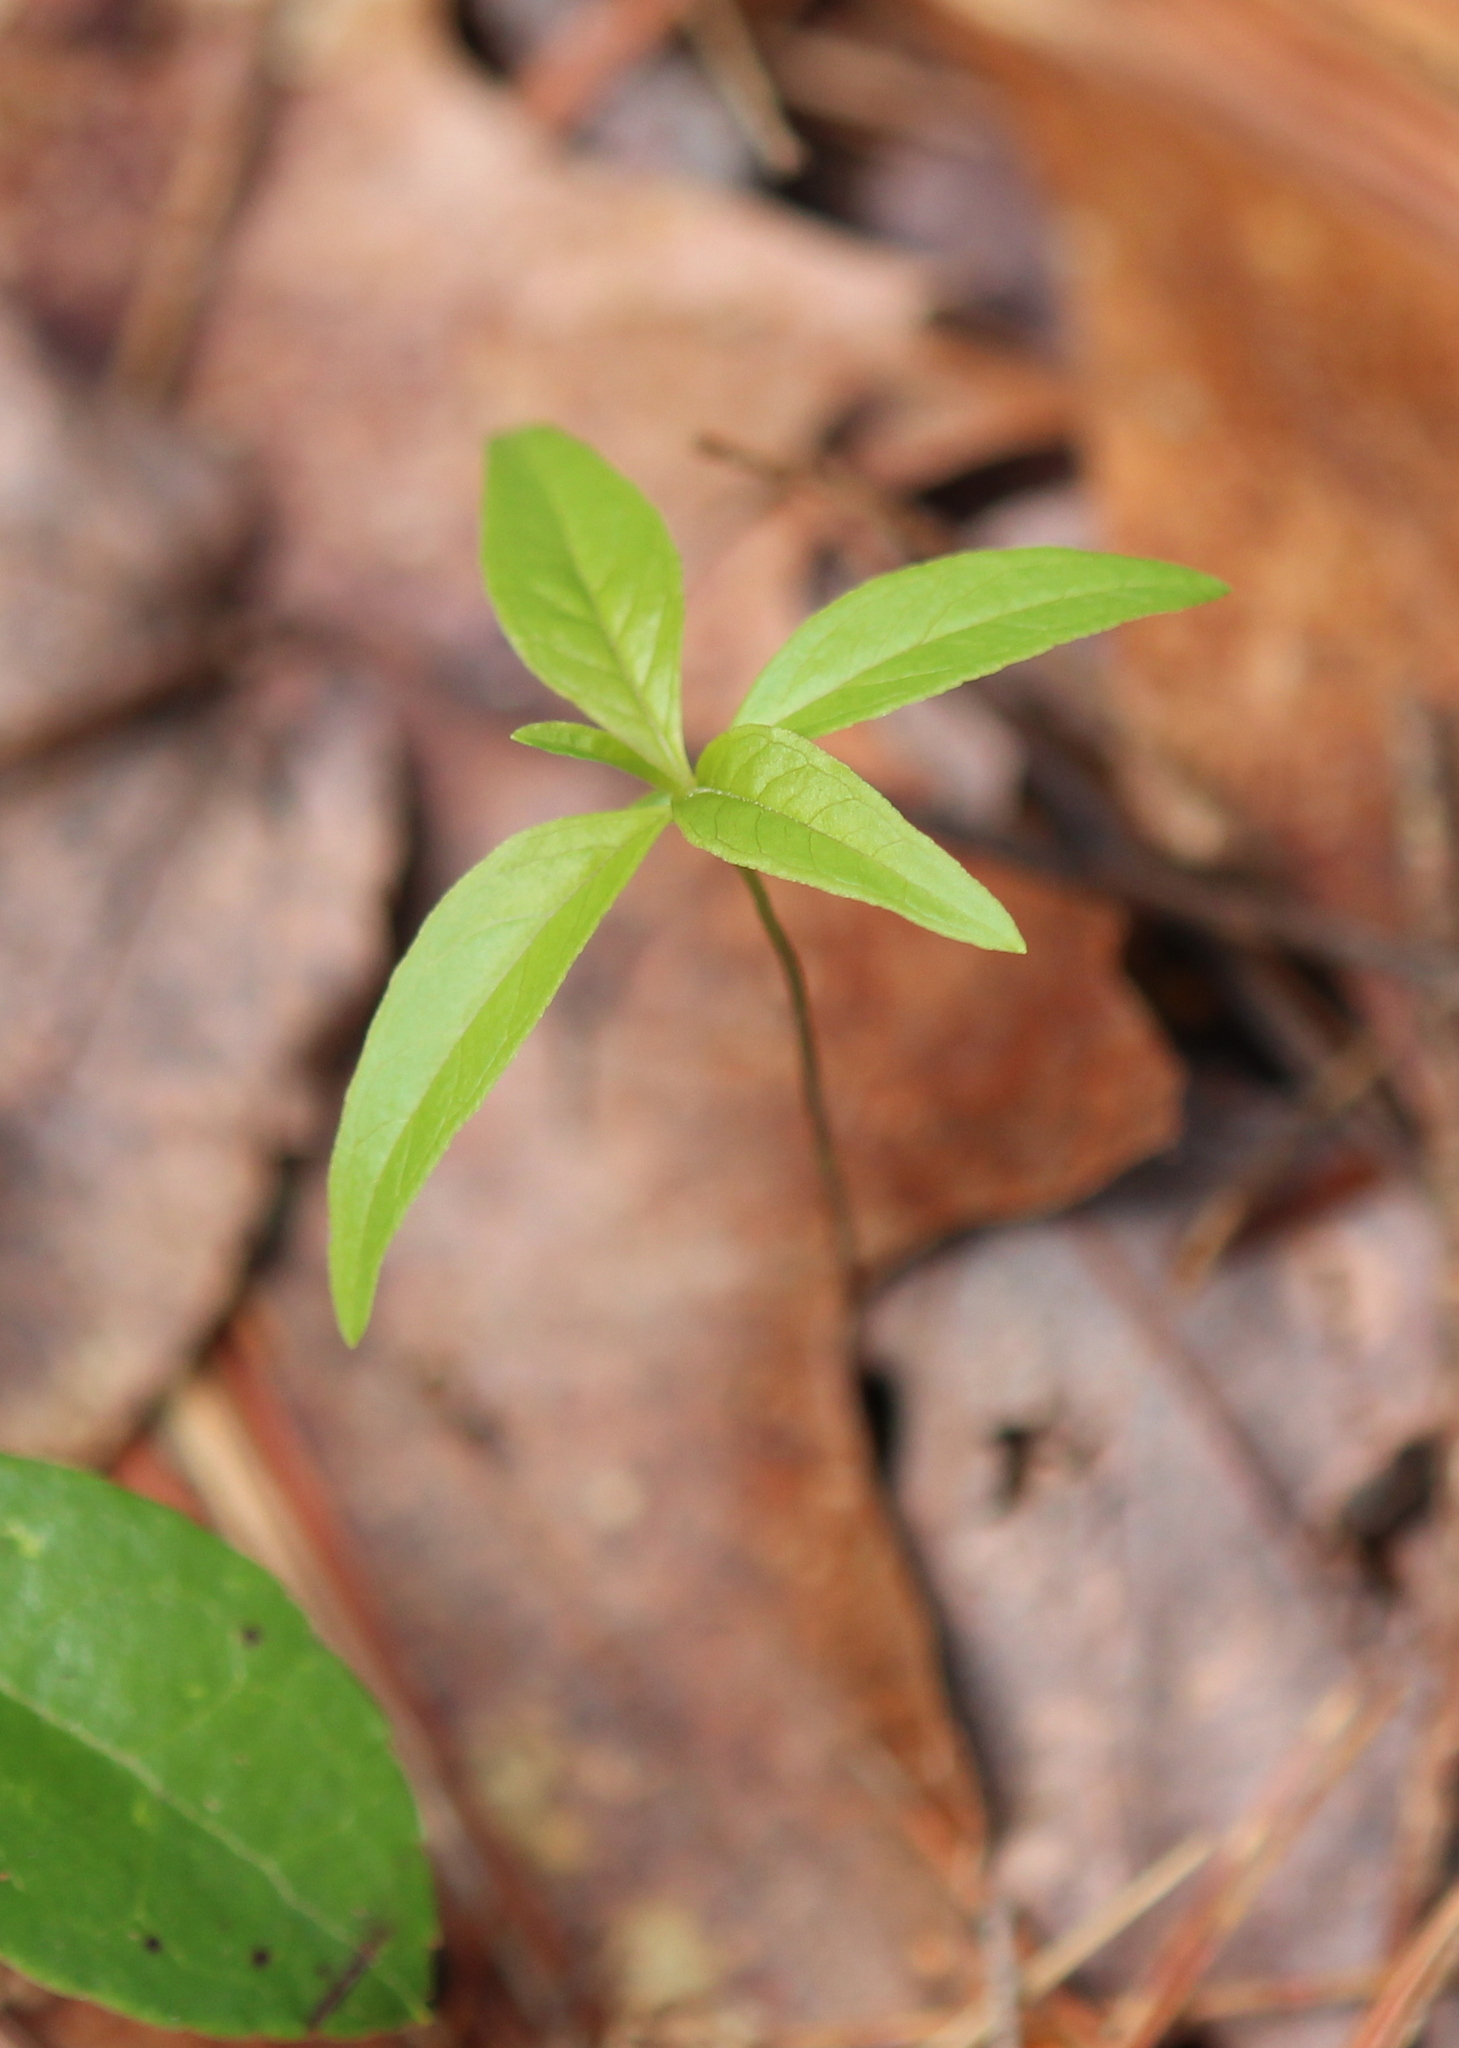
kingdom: Plantae
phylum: Tracheophyta
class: Magnoliopsida
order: Ericales
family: Primulaceae
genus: Lysimachia
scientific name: Lysimachia borealis
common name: American starflower
